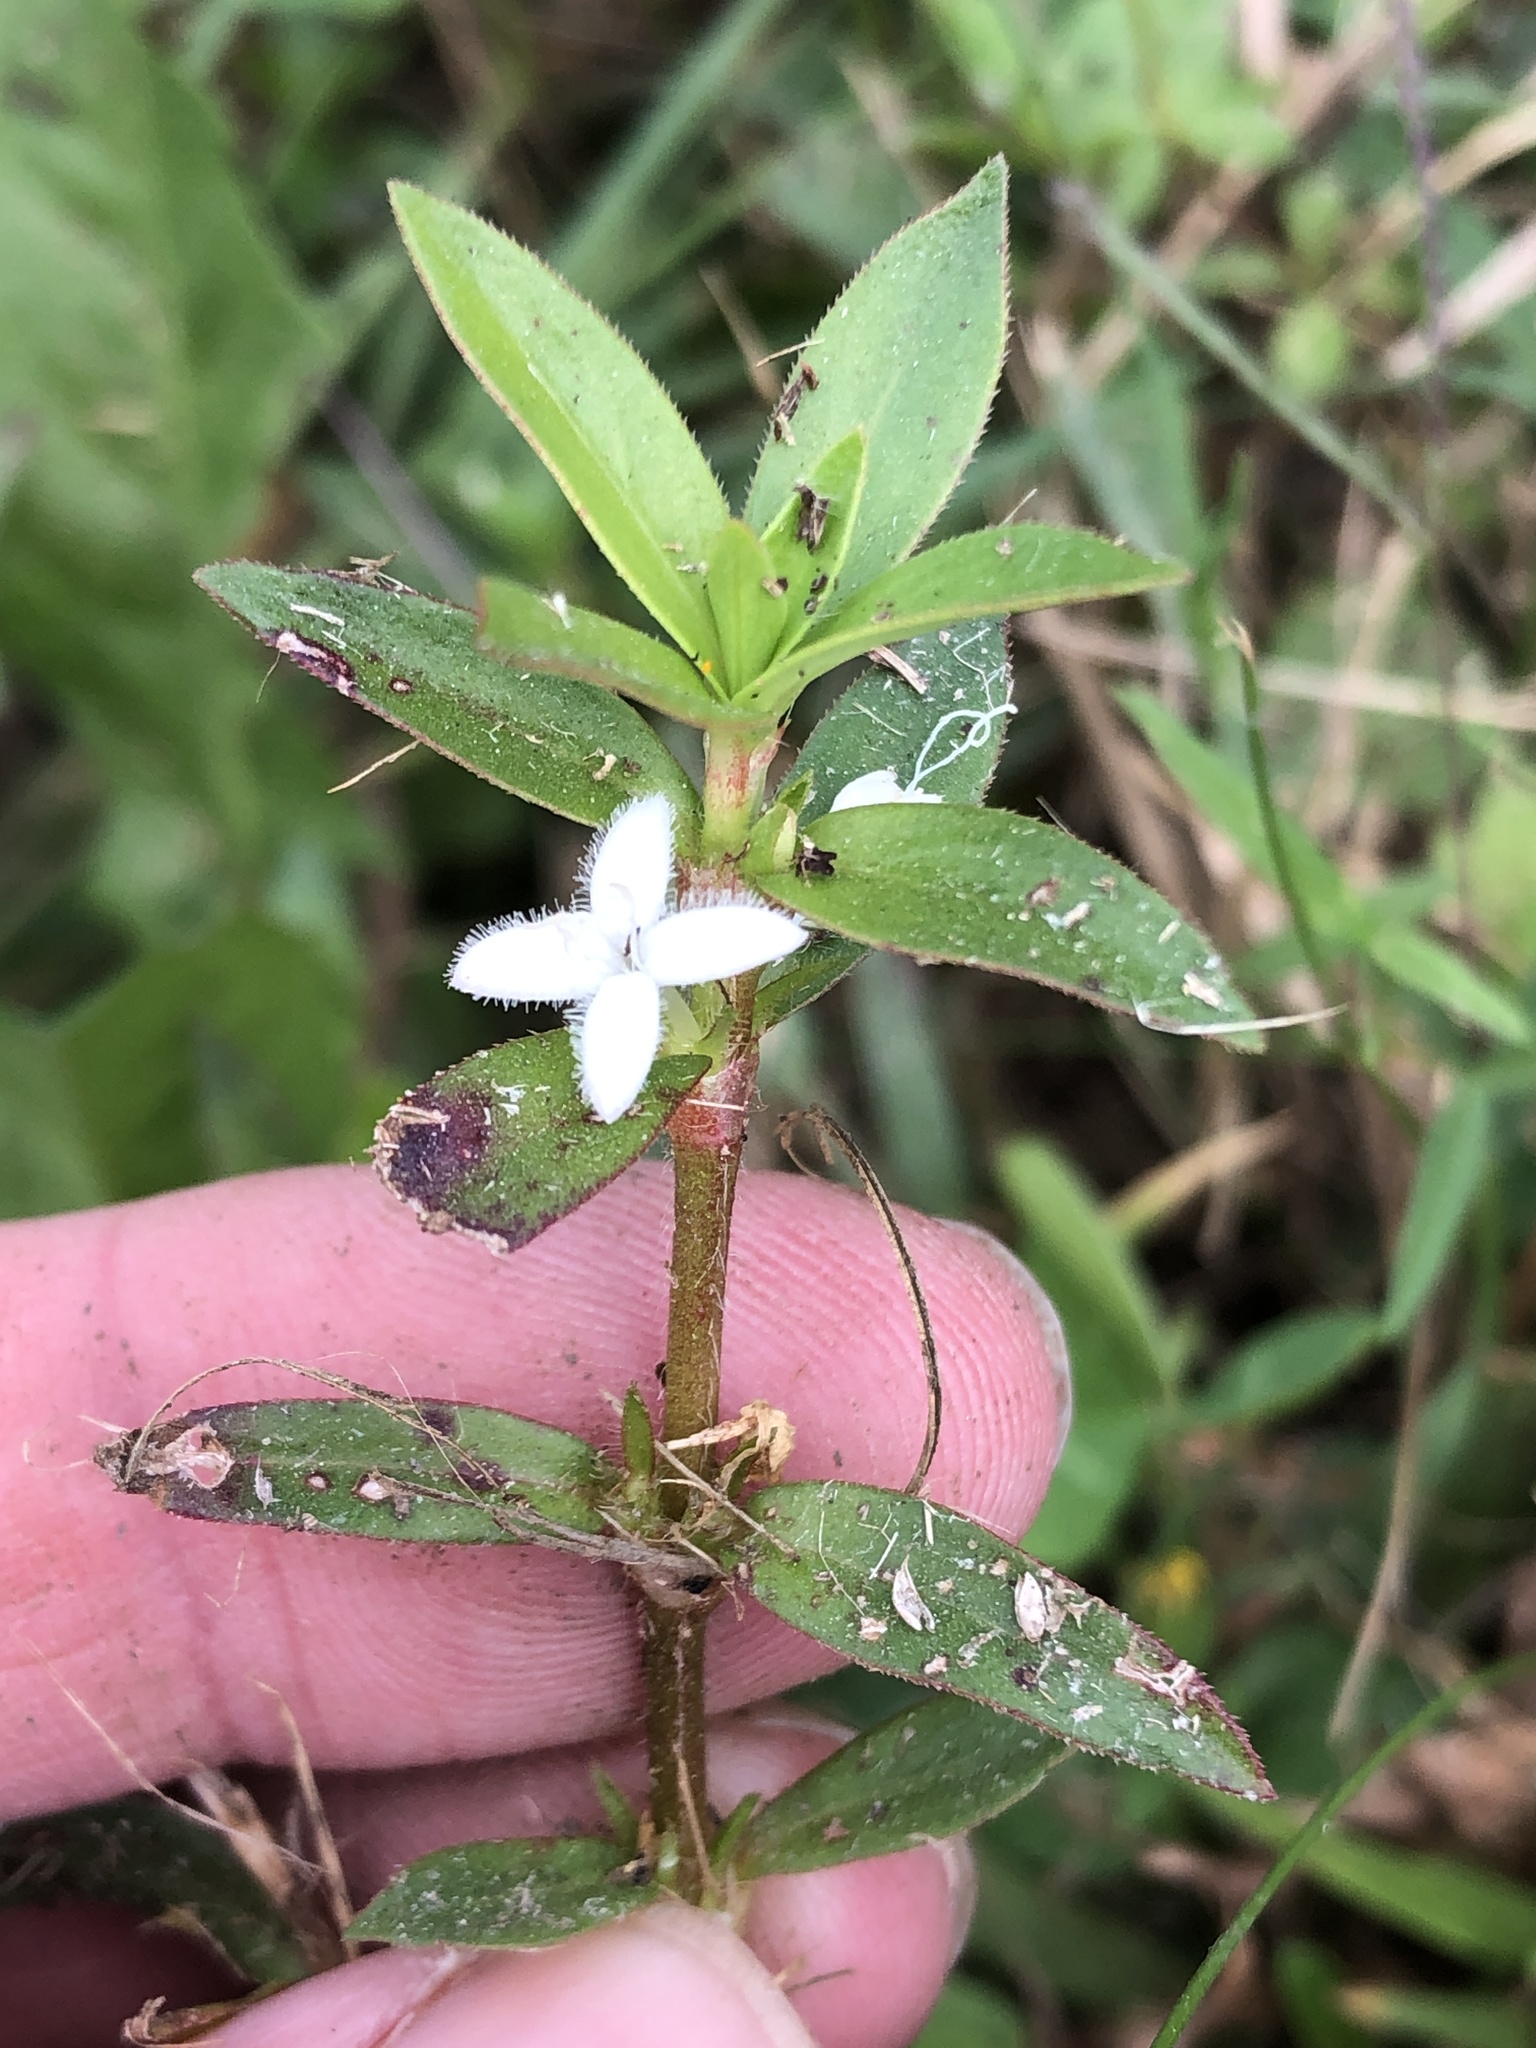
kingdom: Plantae
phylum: Tracheophyta
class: Magnoliopsida
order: Gentianales
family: Rubiaceae
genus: Diodia
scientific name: Diodia virginiana
